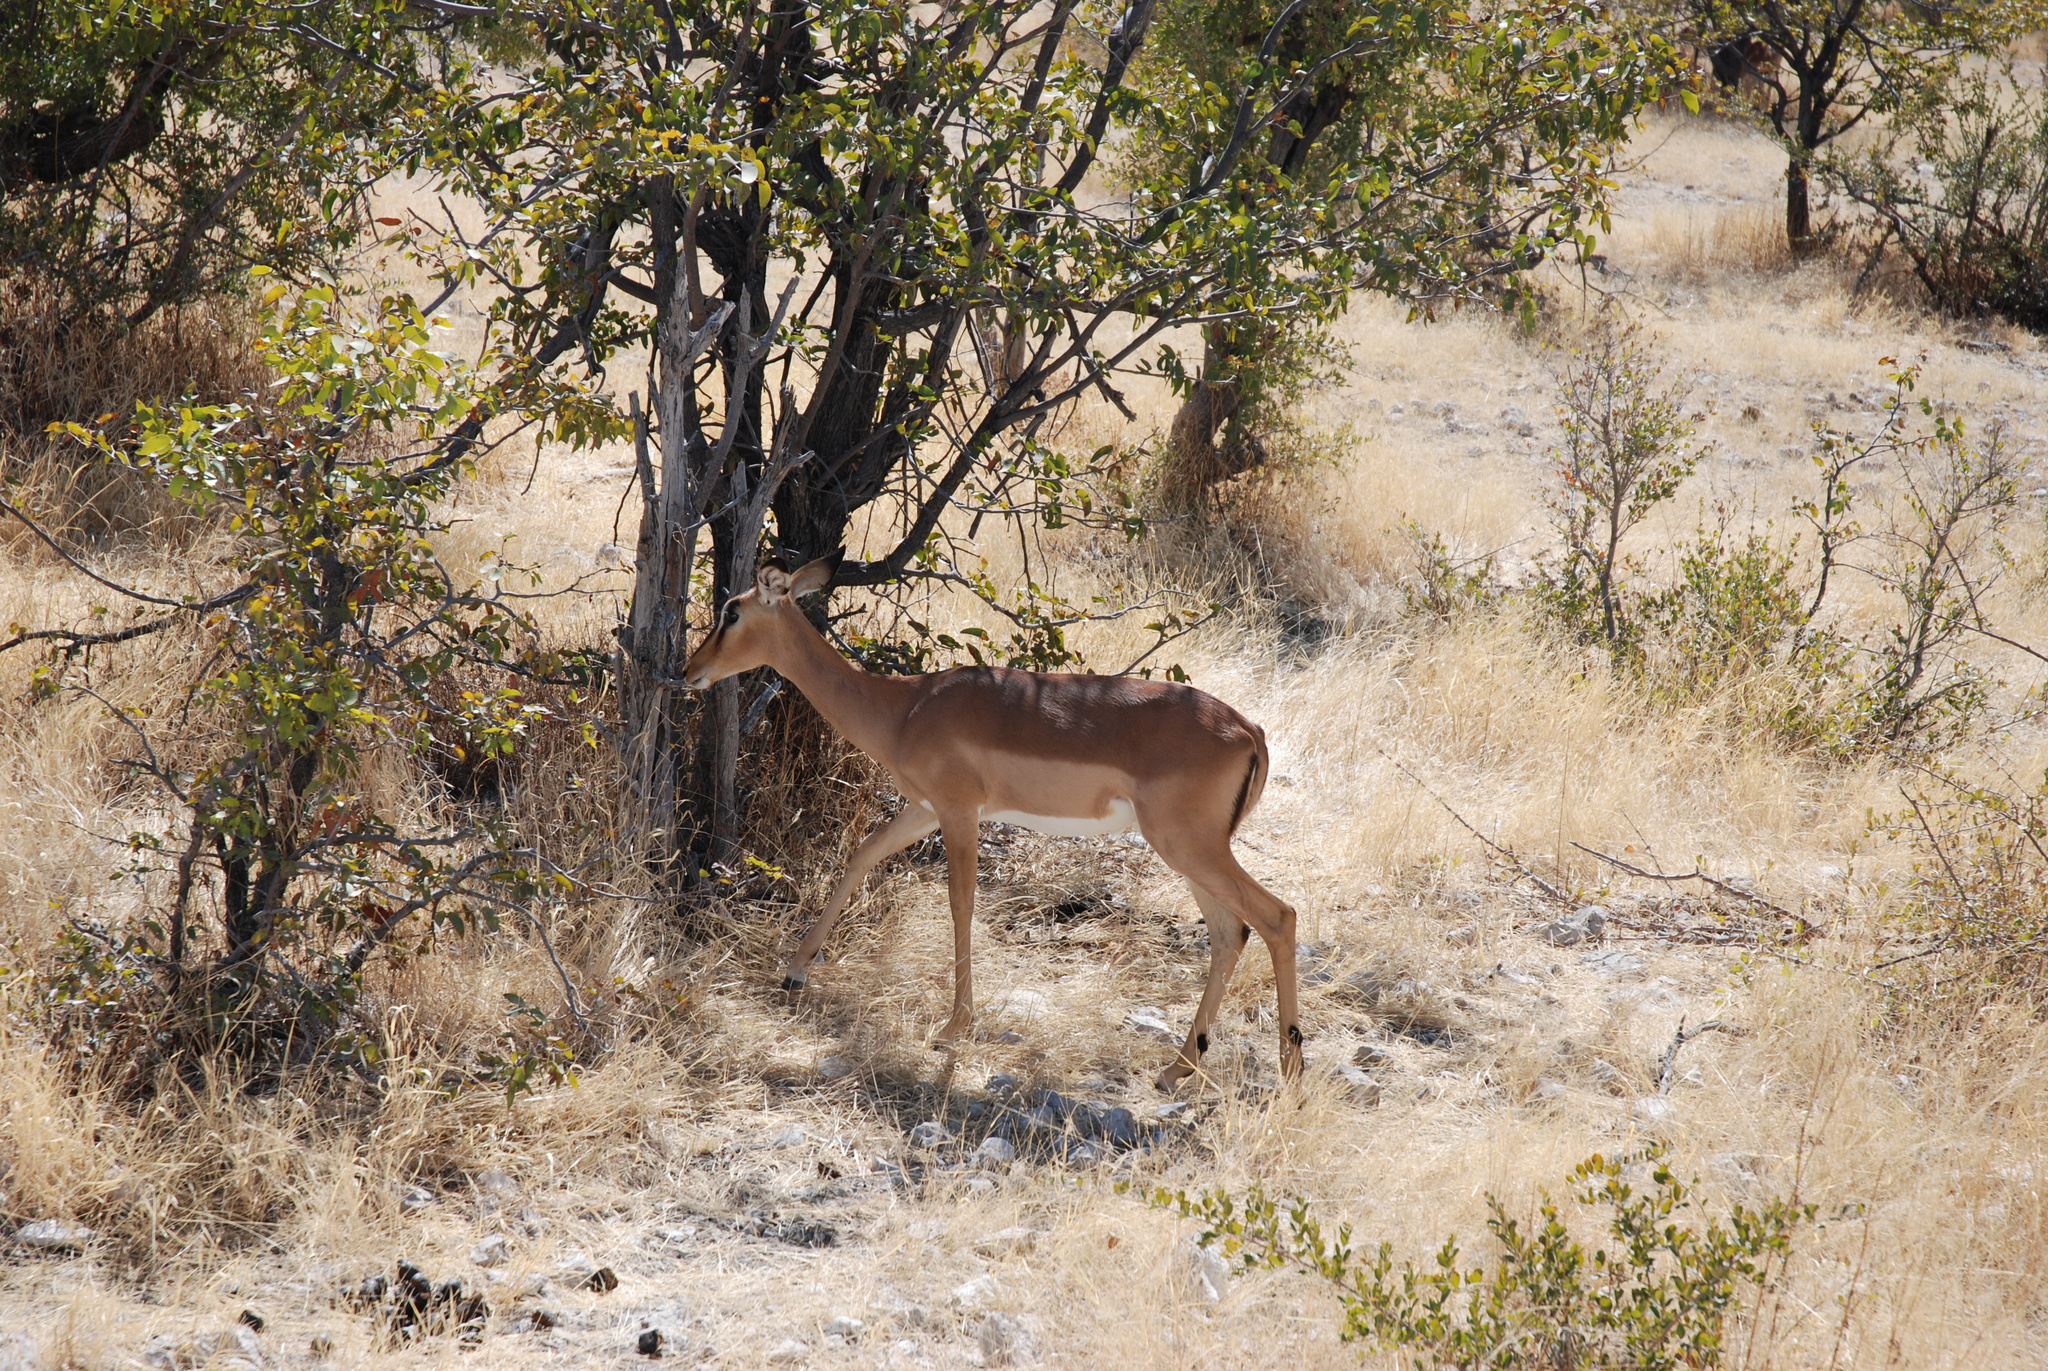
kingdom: Animalia
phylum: Chordata
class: Mammalia
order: Artiodactyla
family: Bovidae
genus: Aepyceros
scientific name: Aepyceros melampus
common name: Impala
